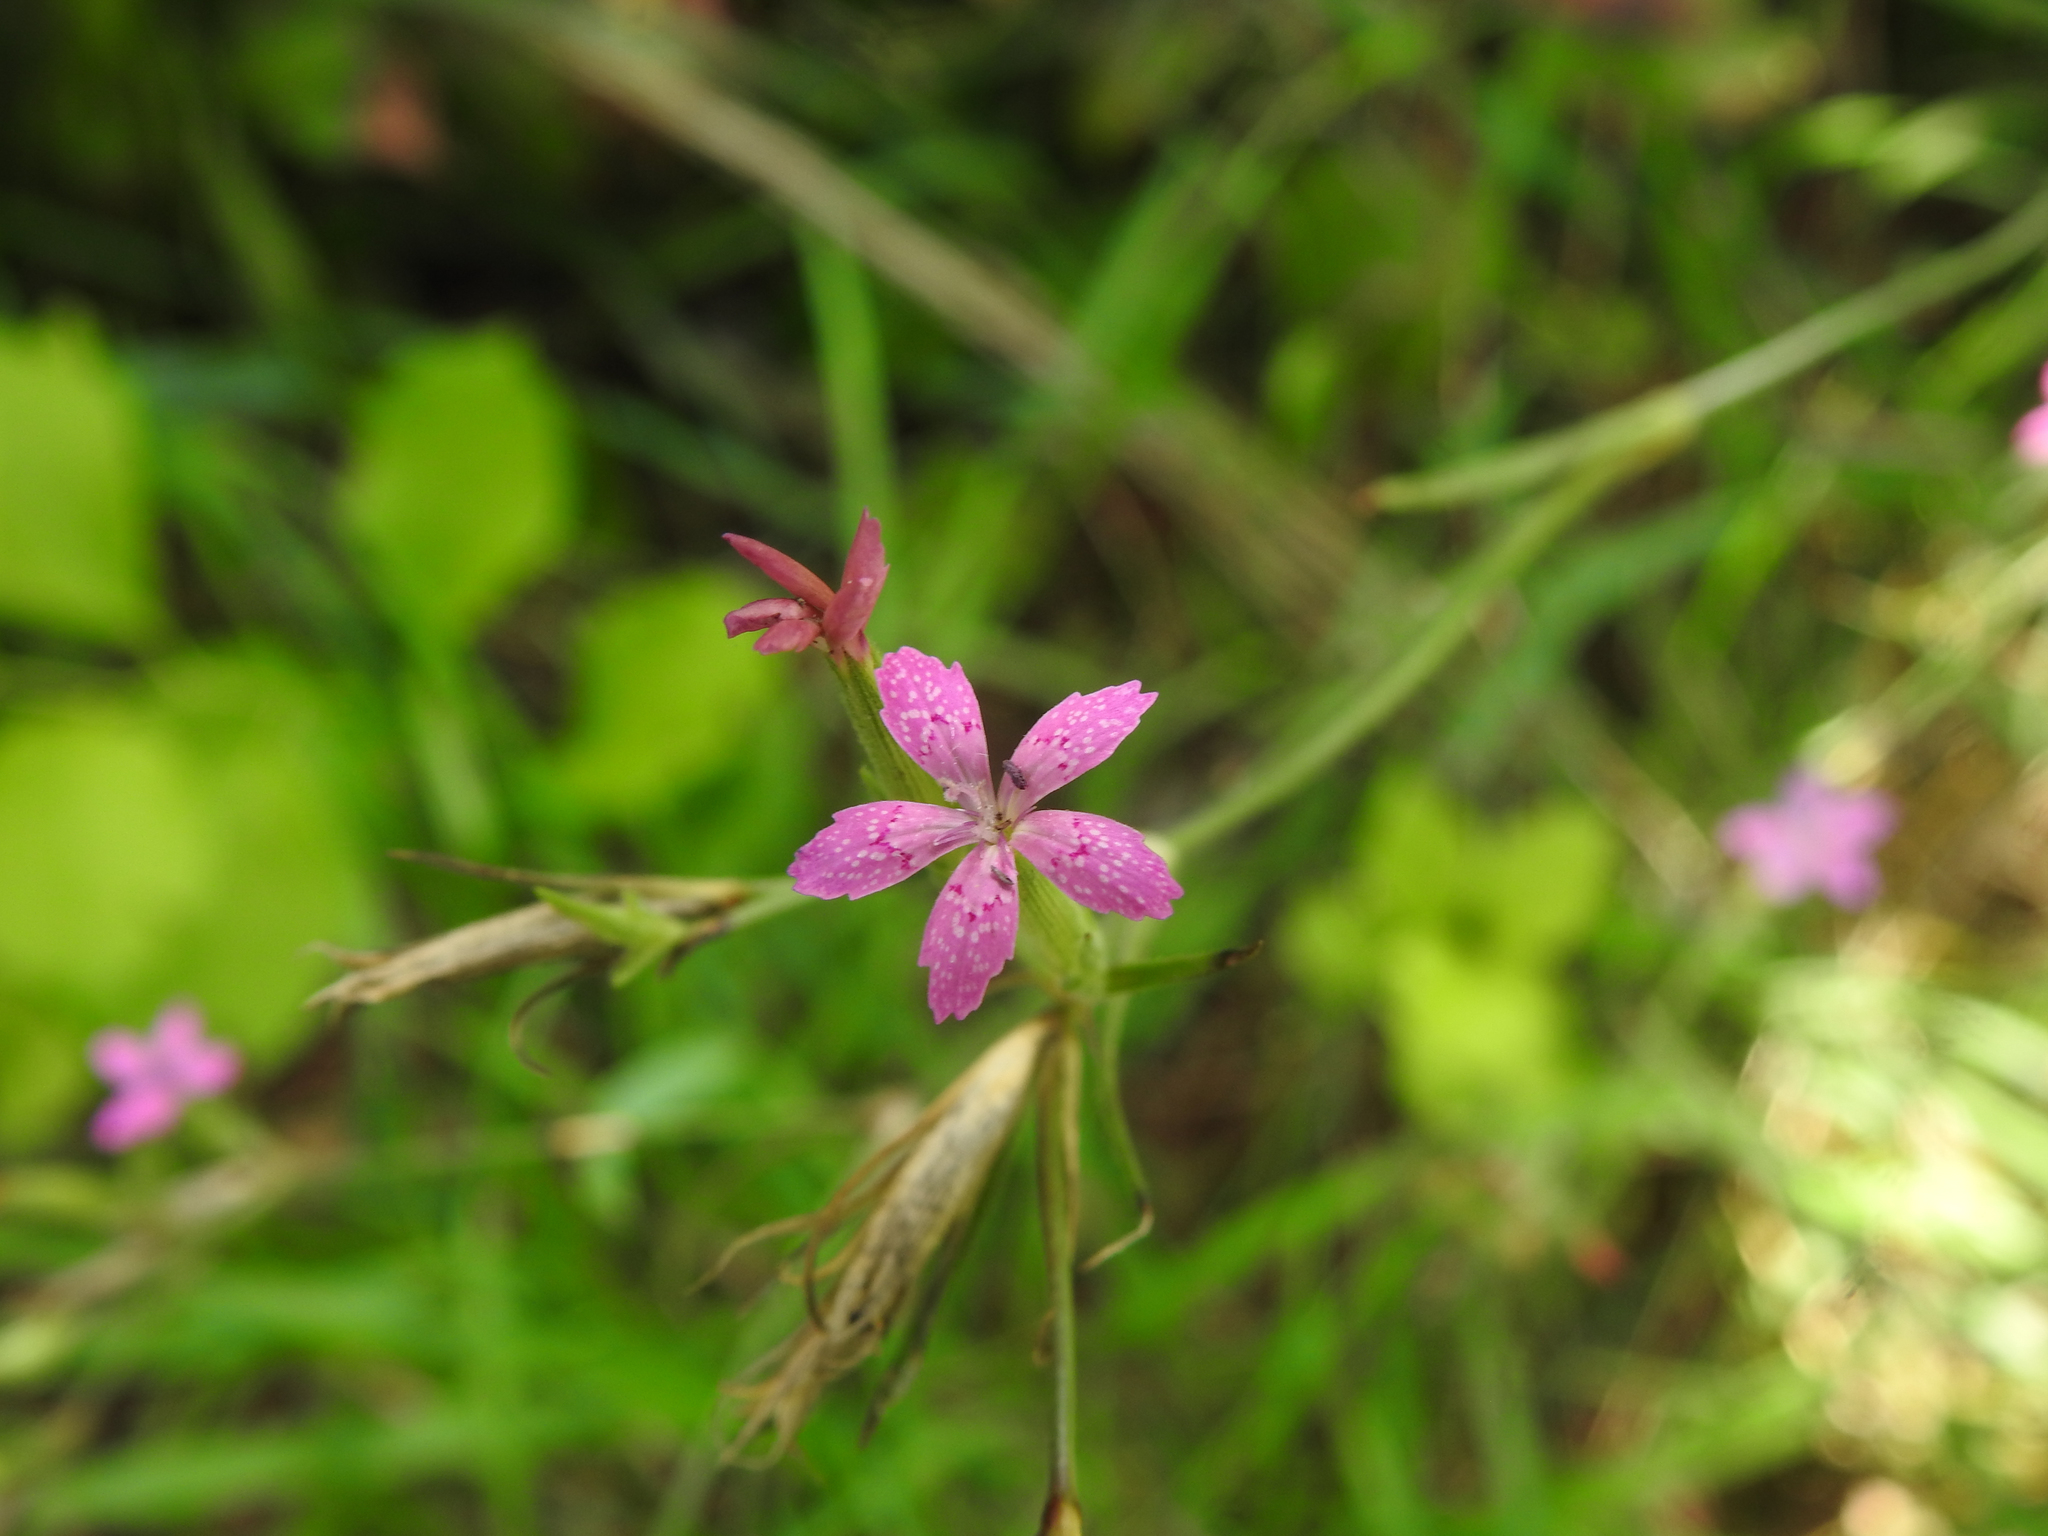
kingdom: Plantae
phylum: Tracheophyta
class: Magnoliopsida
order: Caryophyllales
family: Caryophyllaceae
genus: Dianthus
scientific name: Dianthus armeria
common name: Deptford pink
